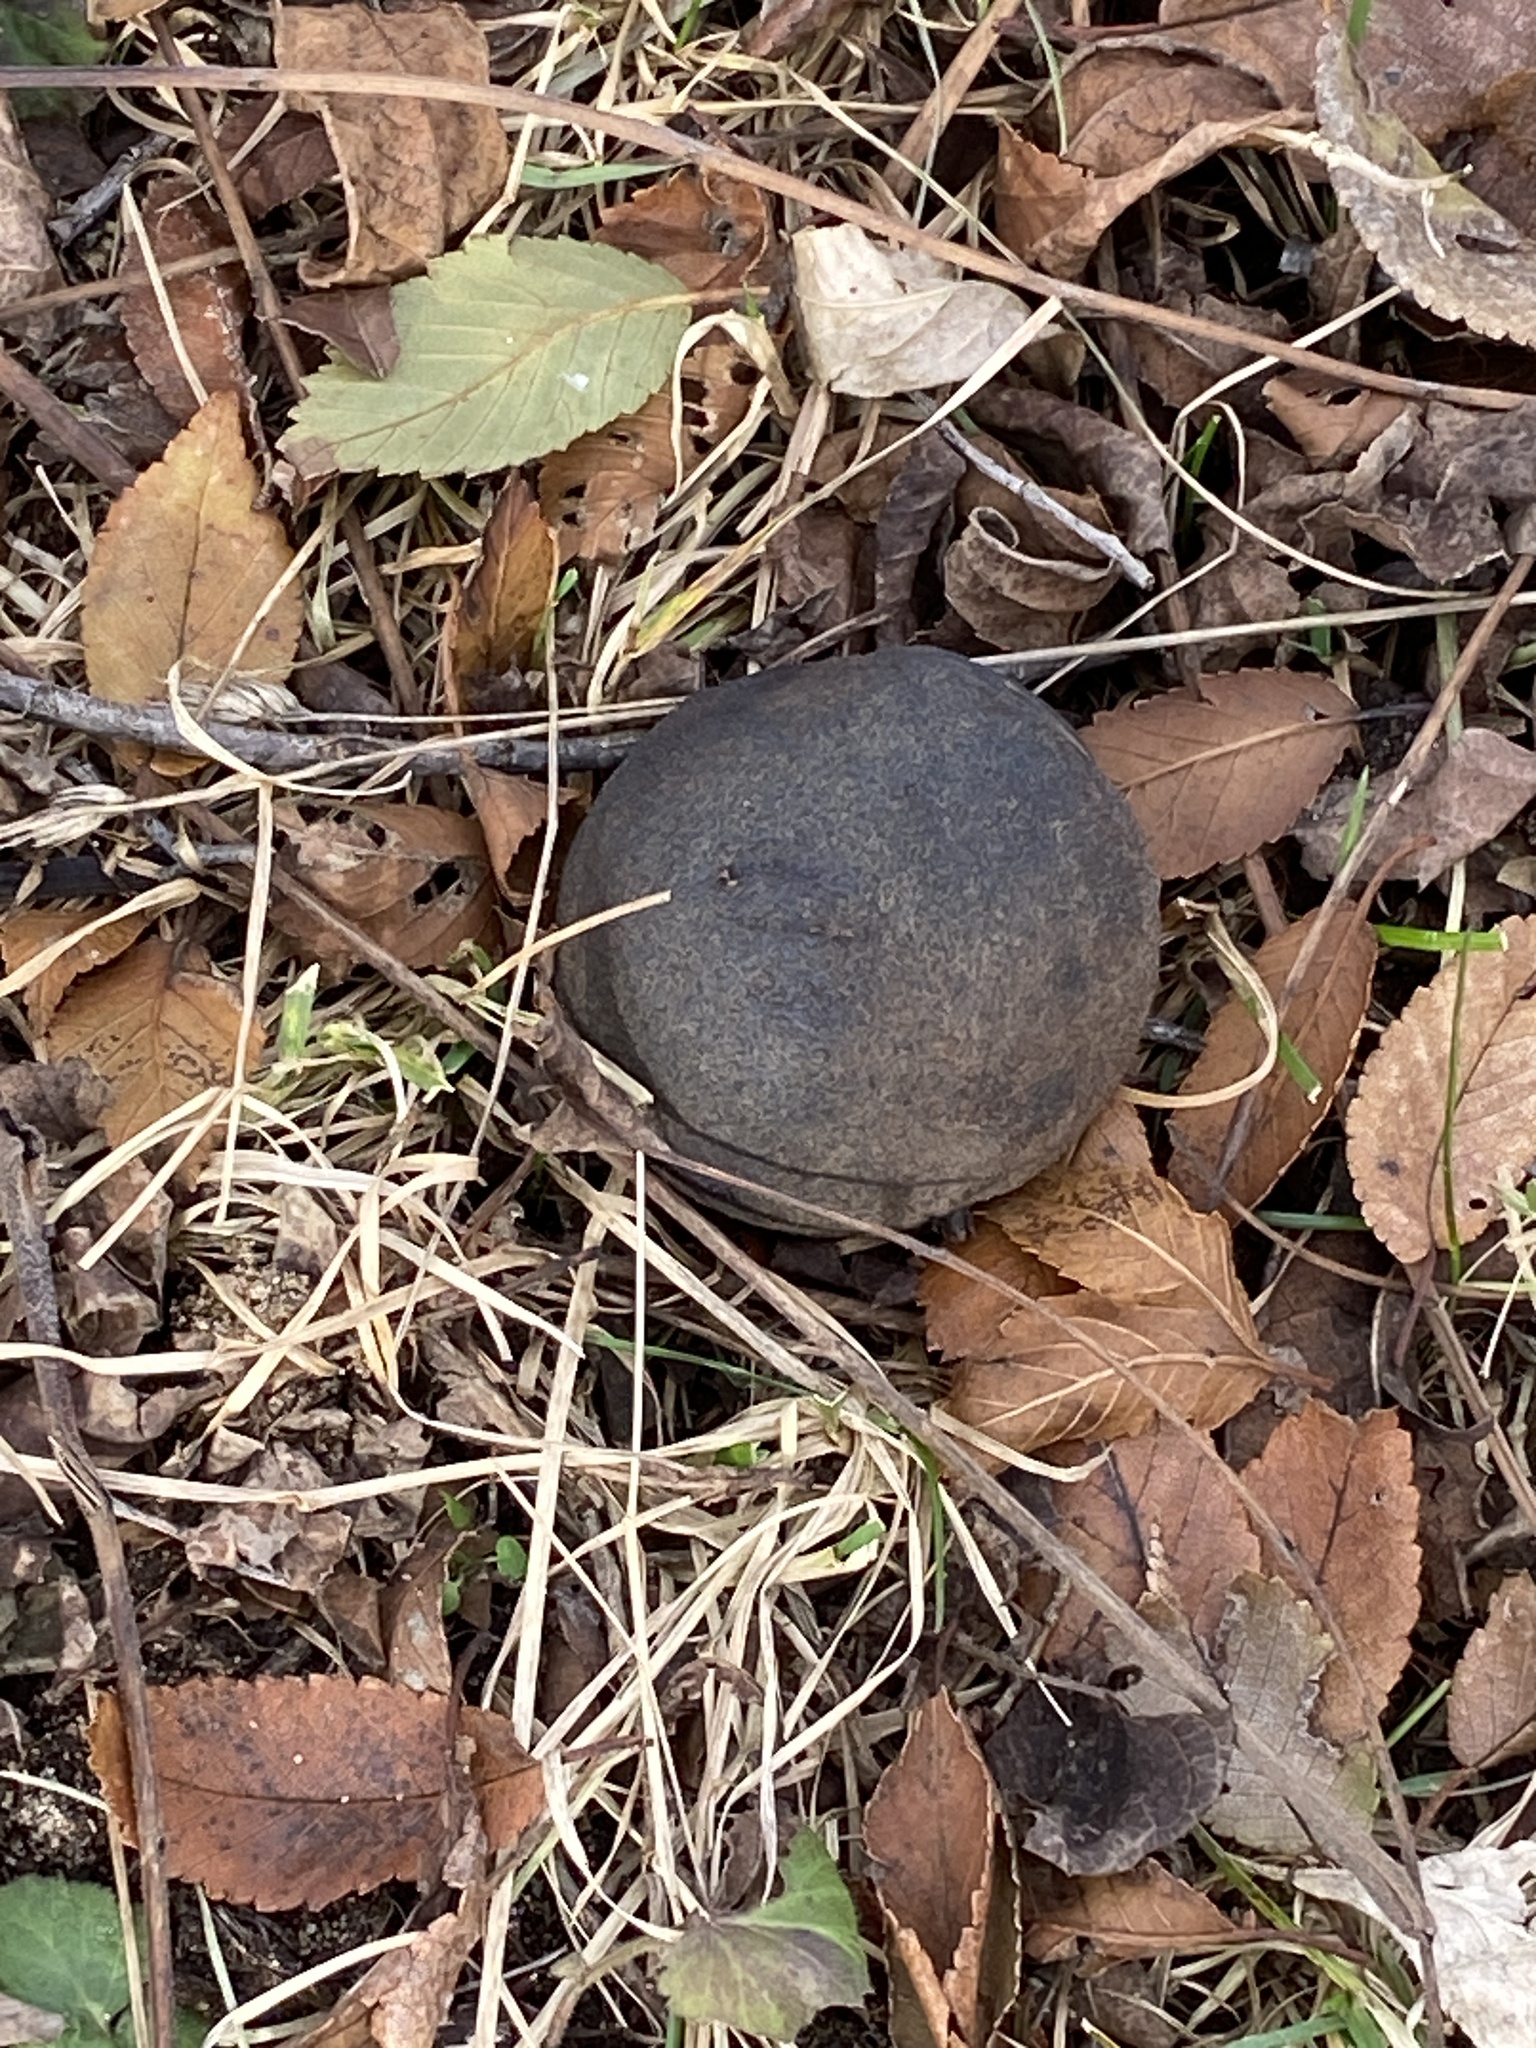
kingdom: Plantae
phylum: Tracheophyta
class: Magnoliopsida
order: Fagales
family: Juglandaceae
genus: Juglans
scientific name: Juglans nigra
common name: Black walnut
